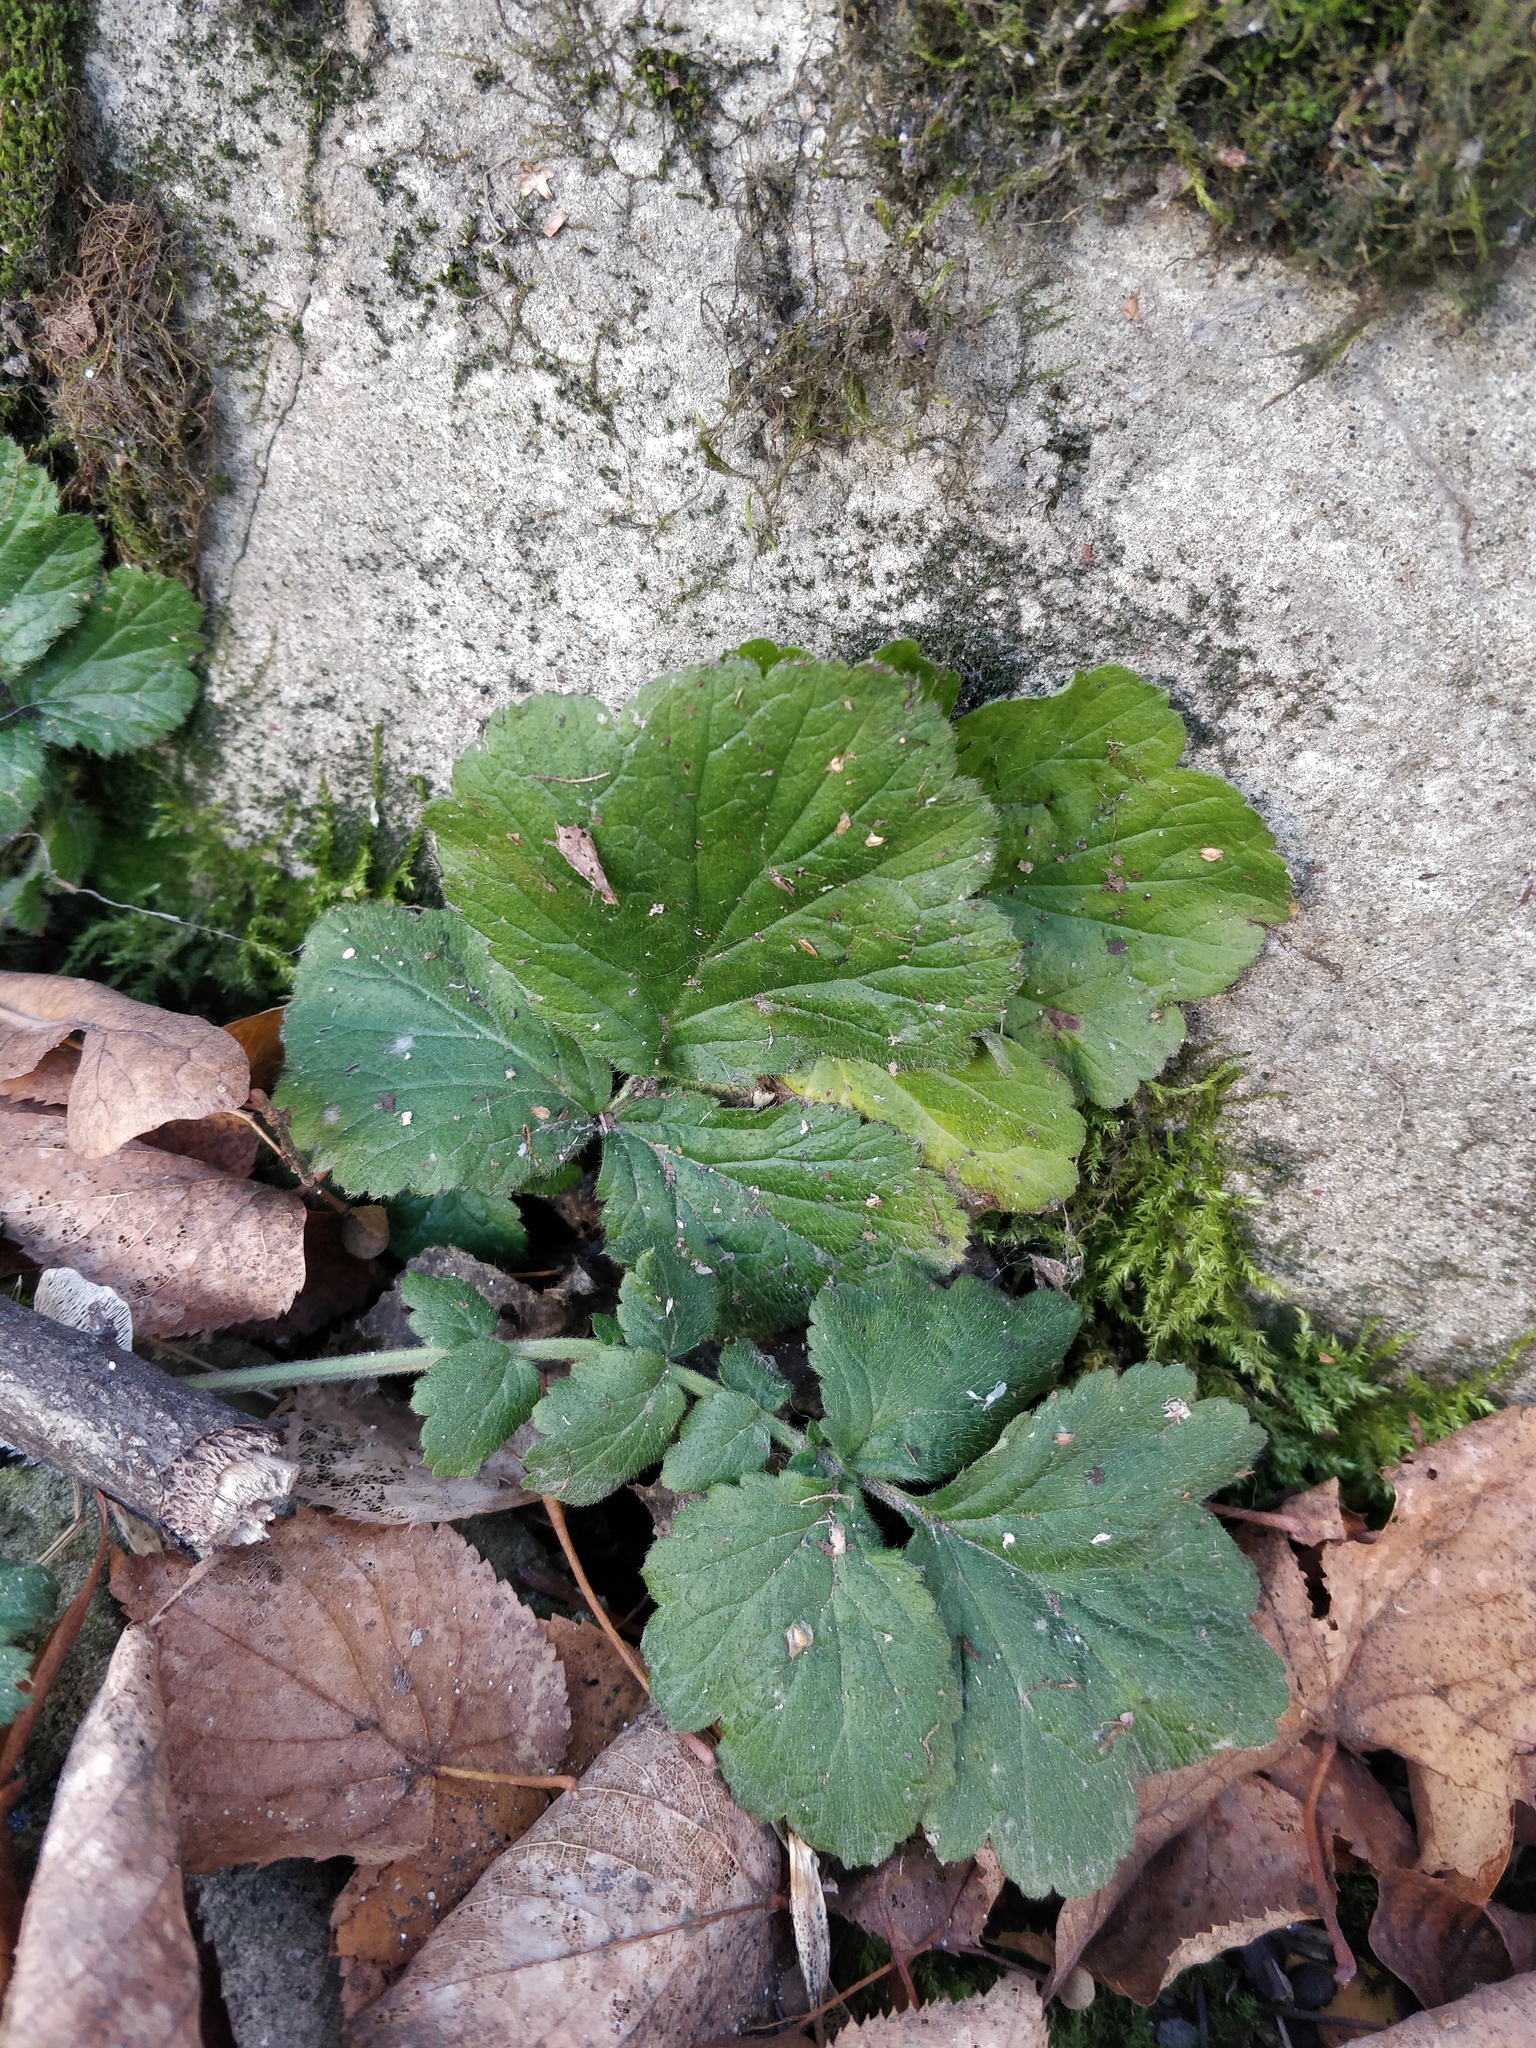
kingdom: Plantae
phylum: Tracheophyta
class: Magnoliopsida
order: Rosales
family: Rosaceae
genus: Geum
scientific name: Geum urbanum
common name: Wood avens
